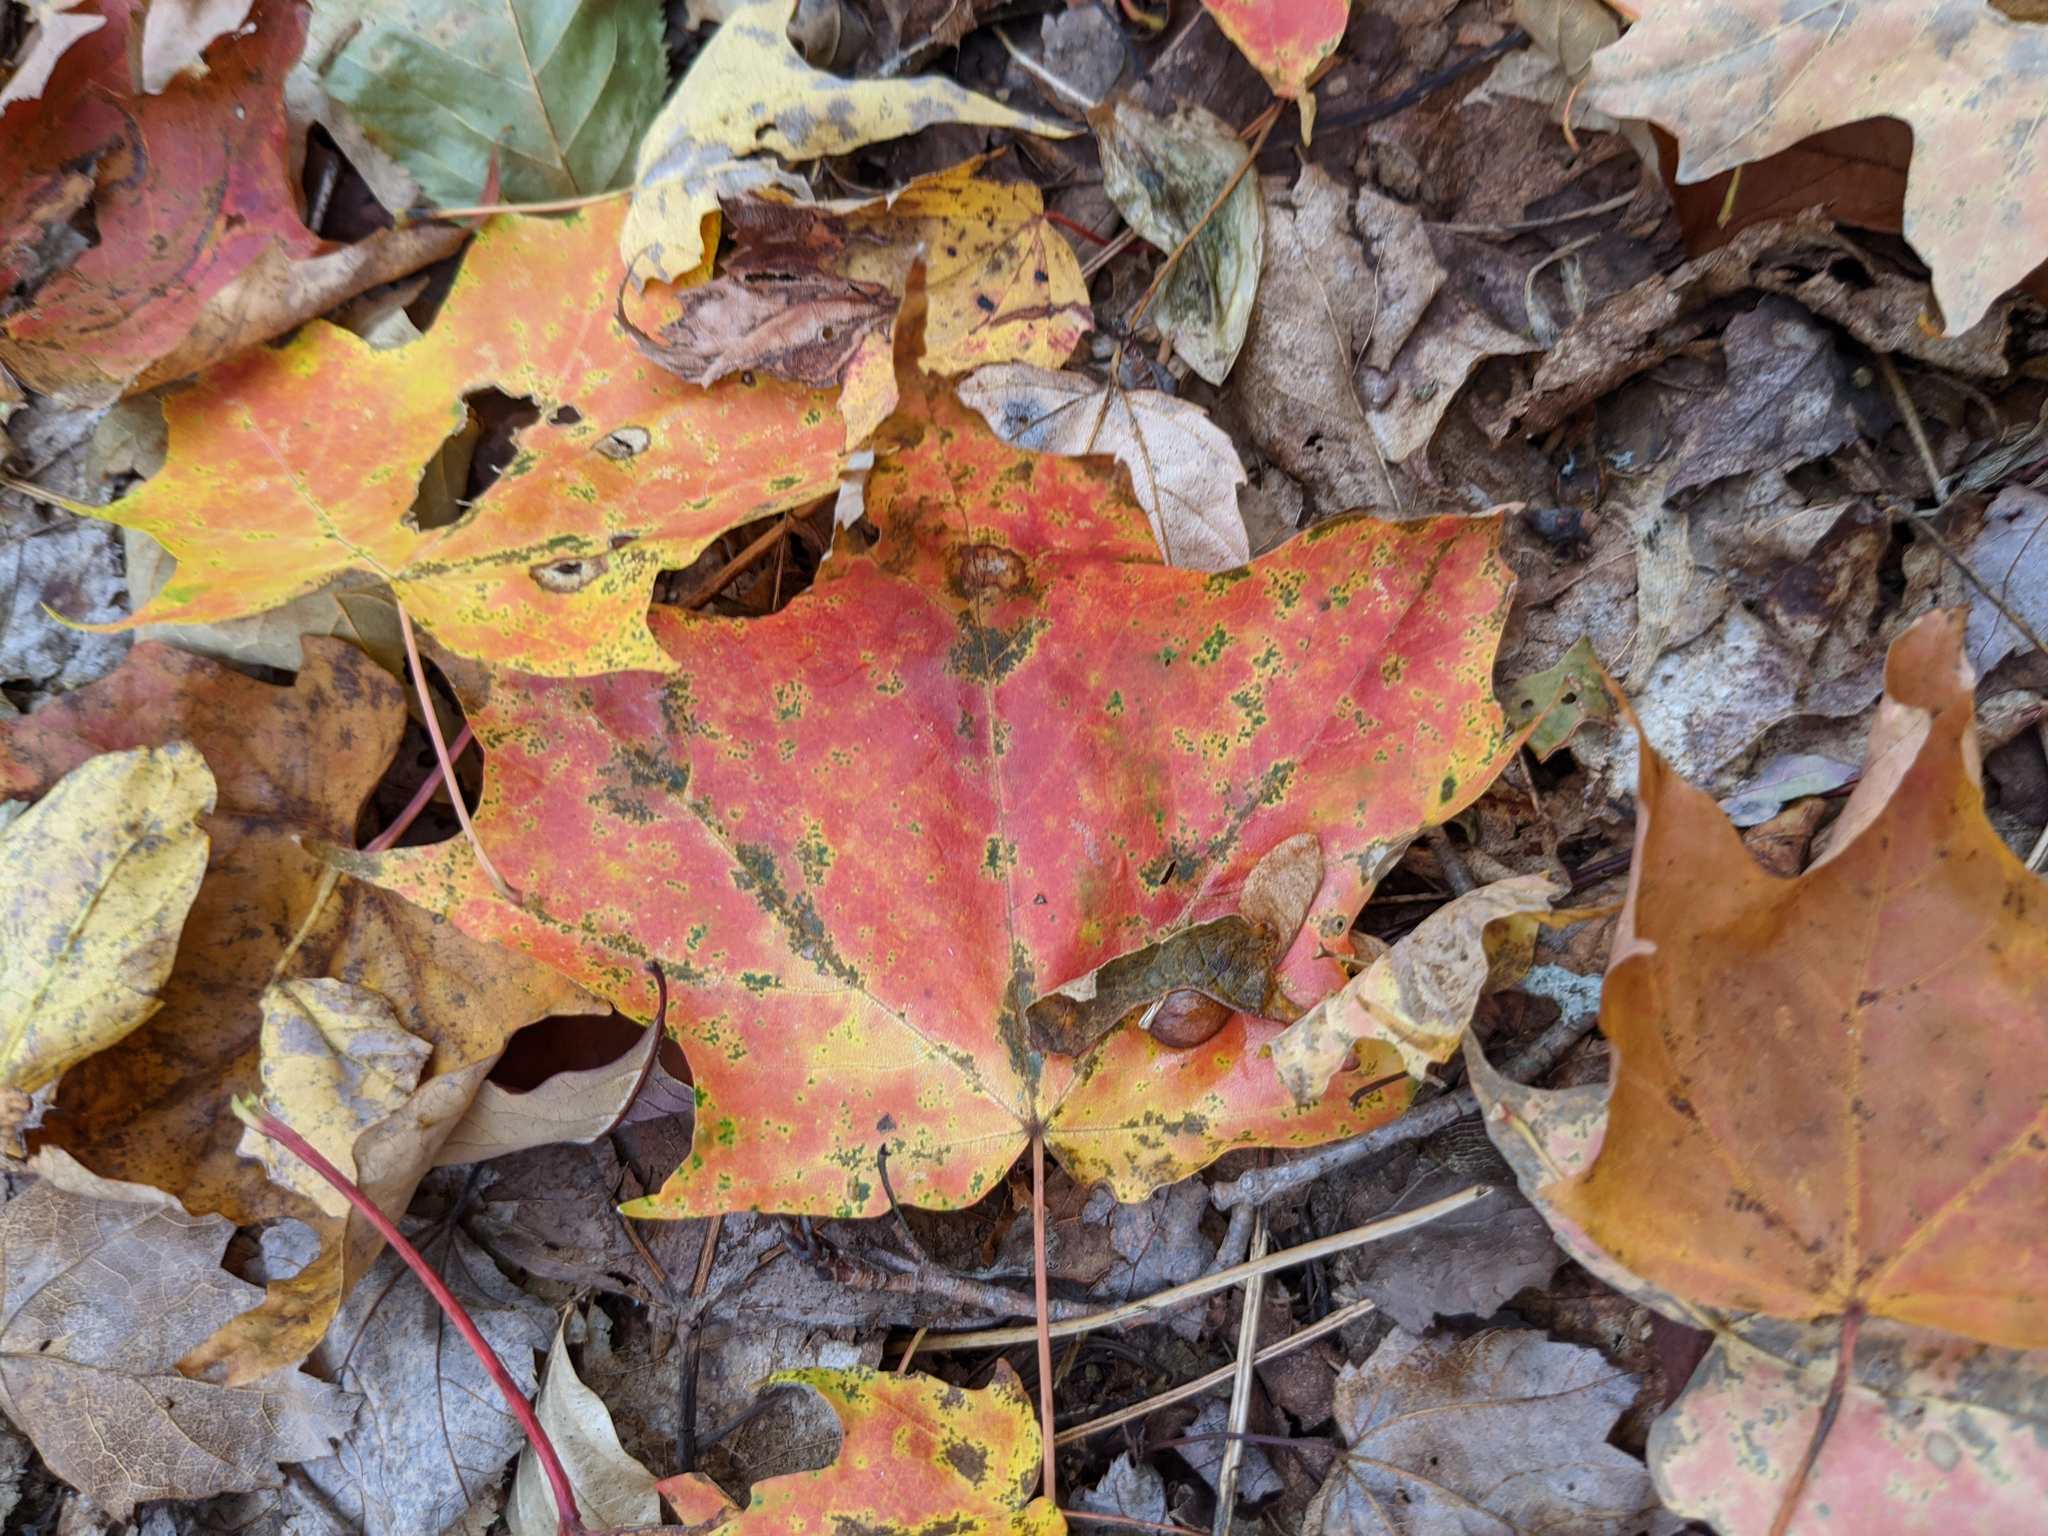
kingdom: Plantae
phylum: Tracheophyta
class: Magnoliopsida
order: Sapindales
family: Sapindaceae
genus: Acer
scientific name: Acer saccharum
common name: Sugar maple
